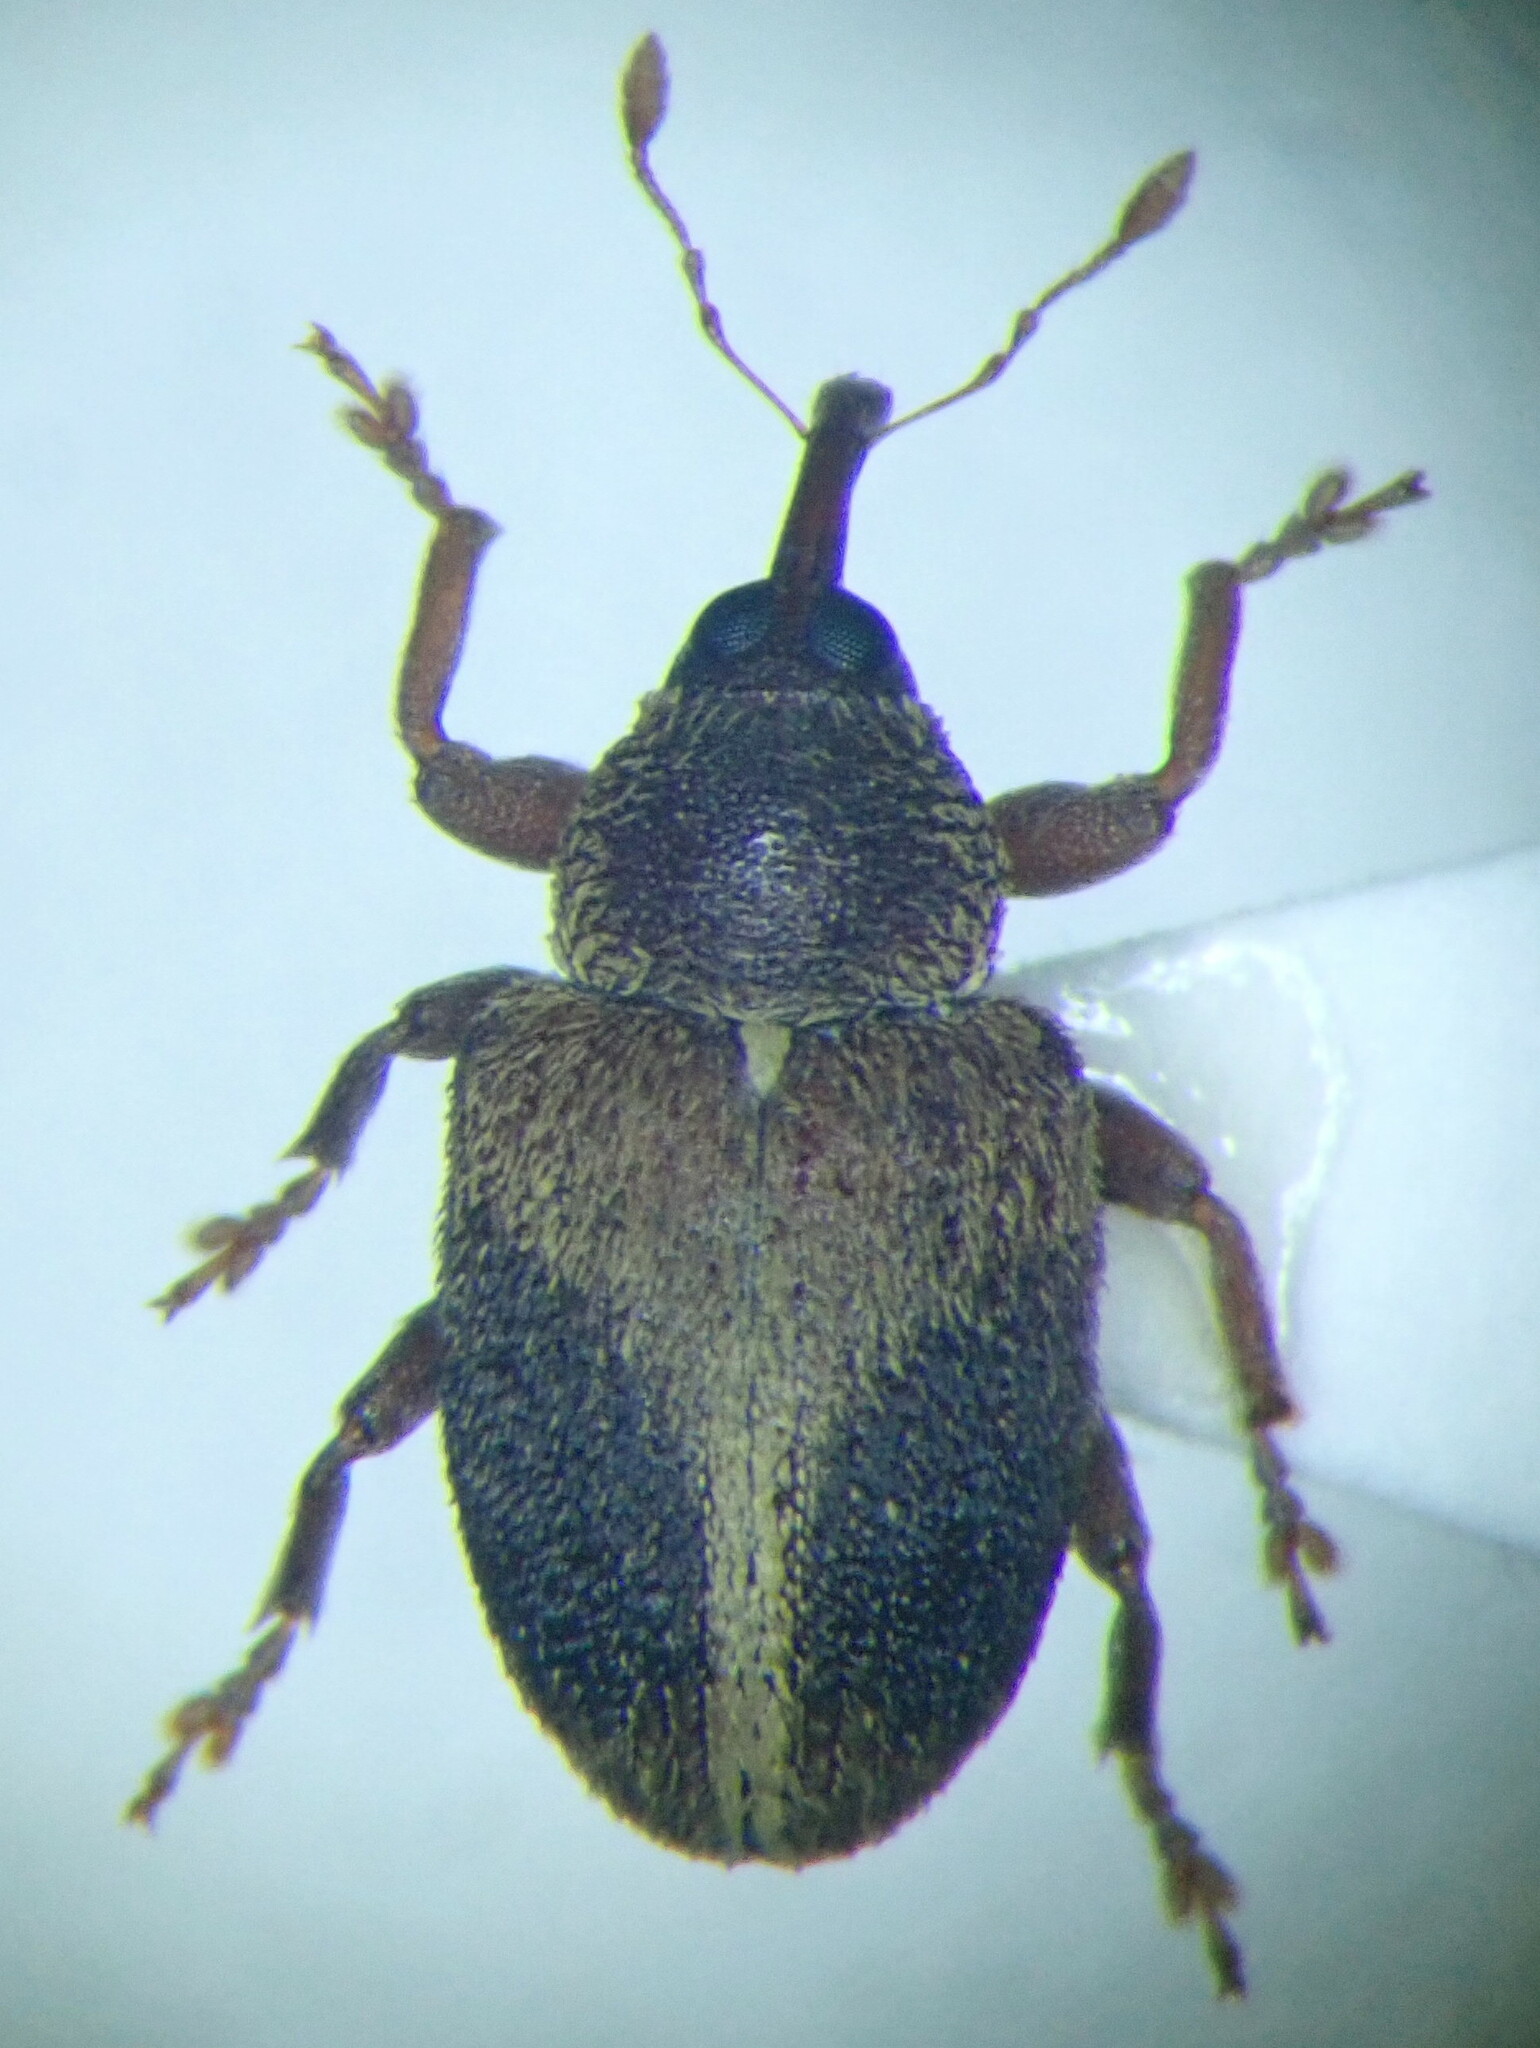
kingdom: Animalia
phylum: Arthropoda
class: Insecta
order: Coleoptera
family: Curculionidae
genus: Lignyodes
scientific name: Lignyodes enucleator
